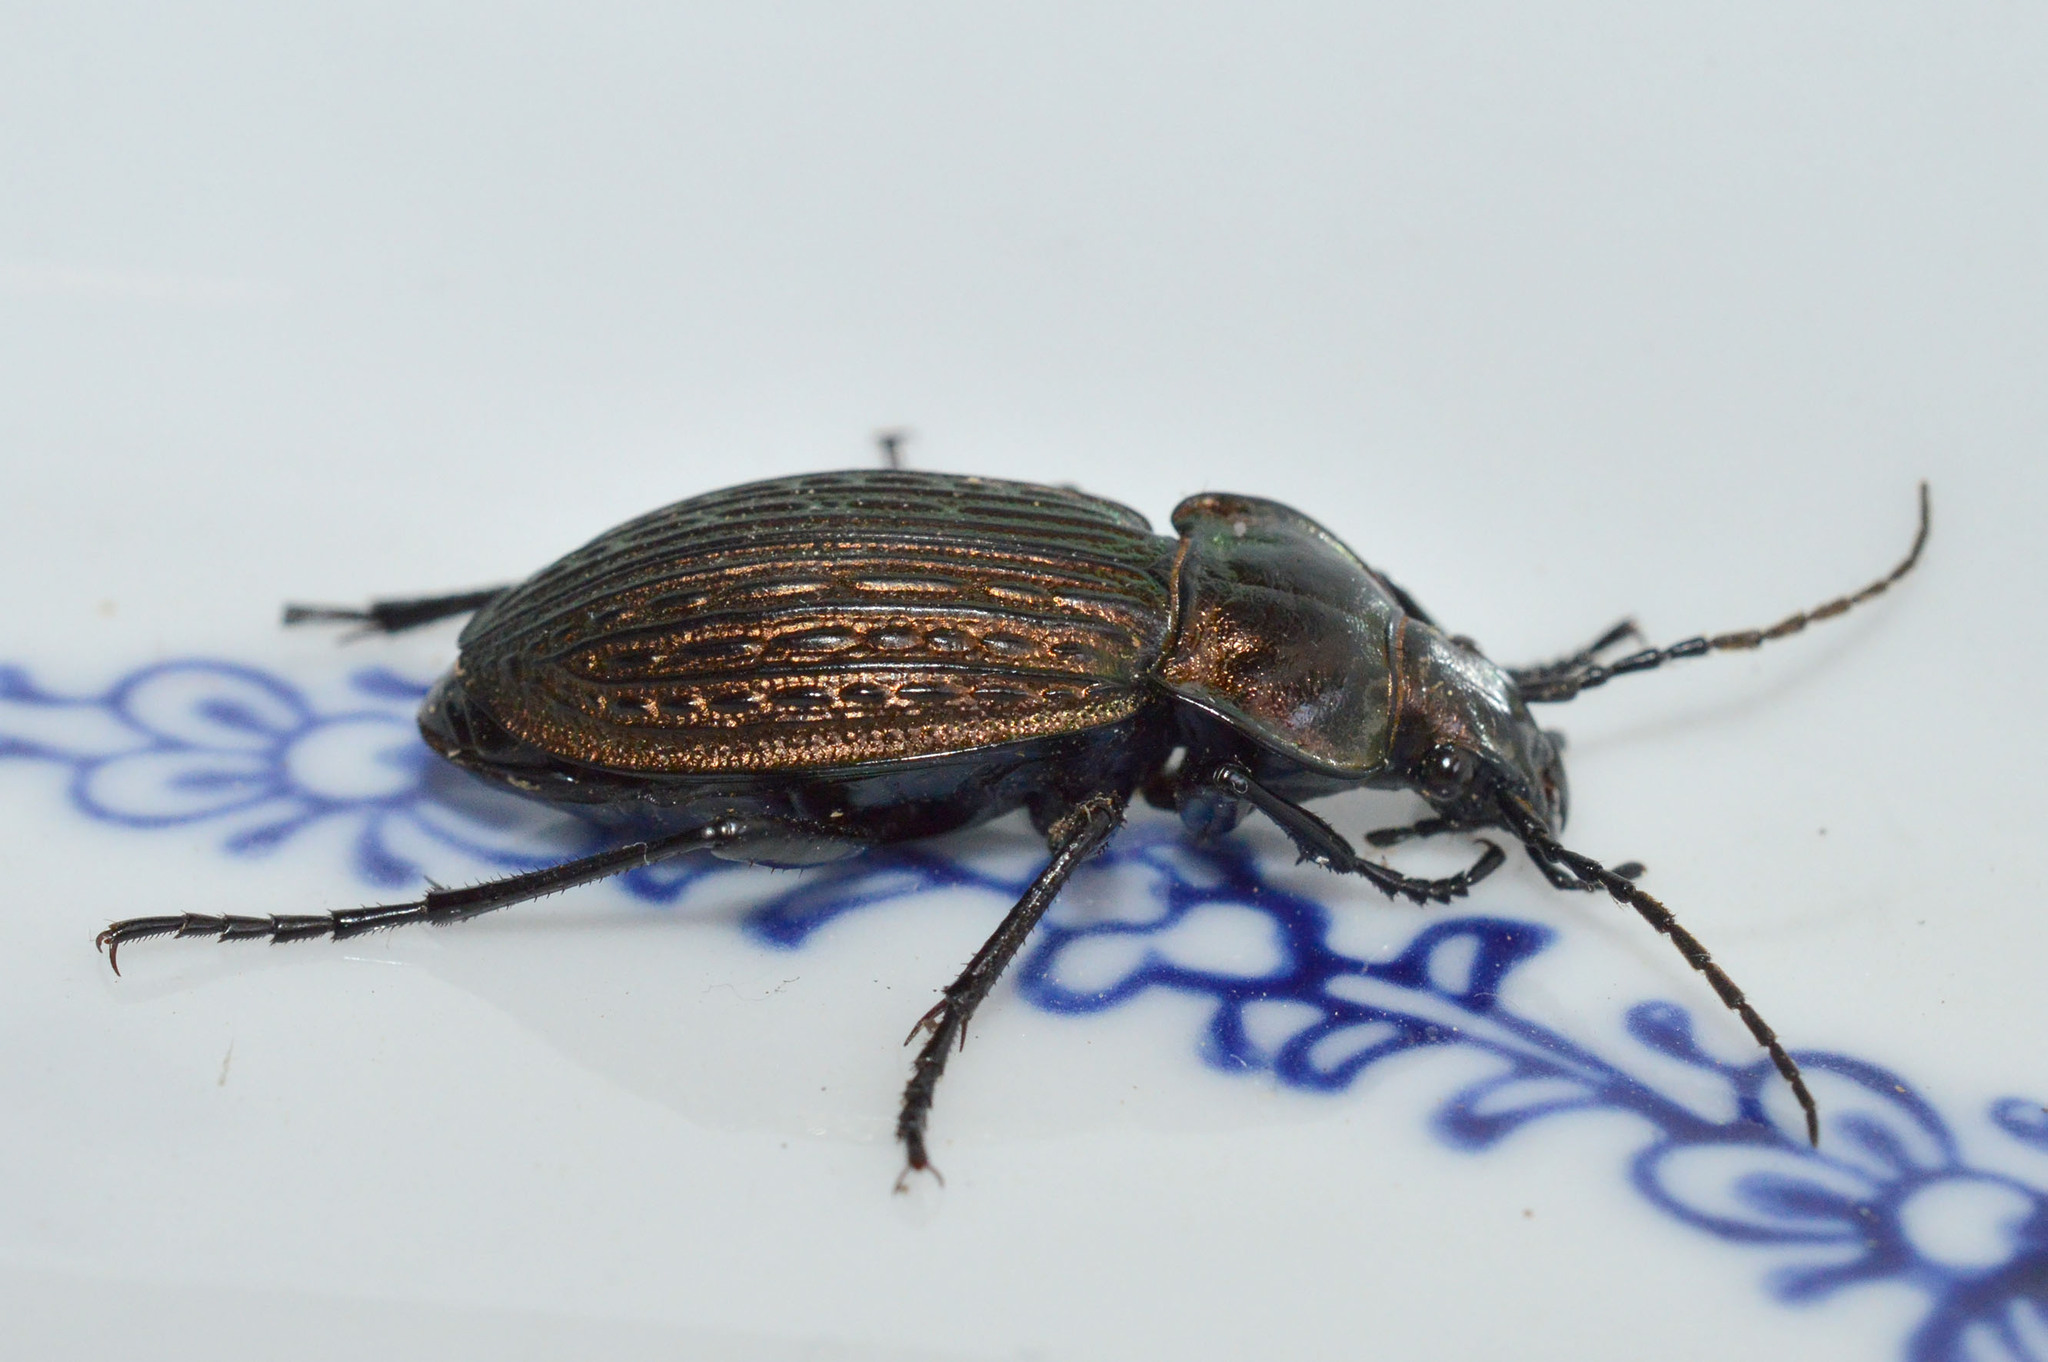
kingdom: Animalia
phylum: Arthropoda
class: Insecta
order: Coleoptera
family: Carabidae
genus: Carabus
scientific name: Carabus ulrichii
